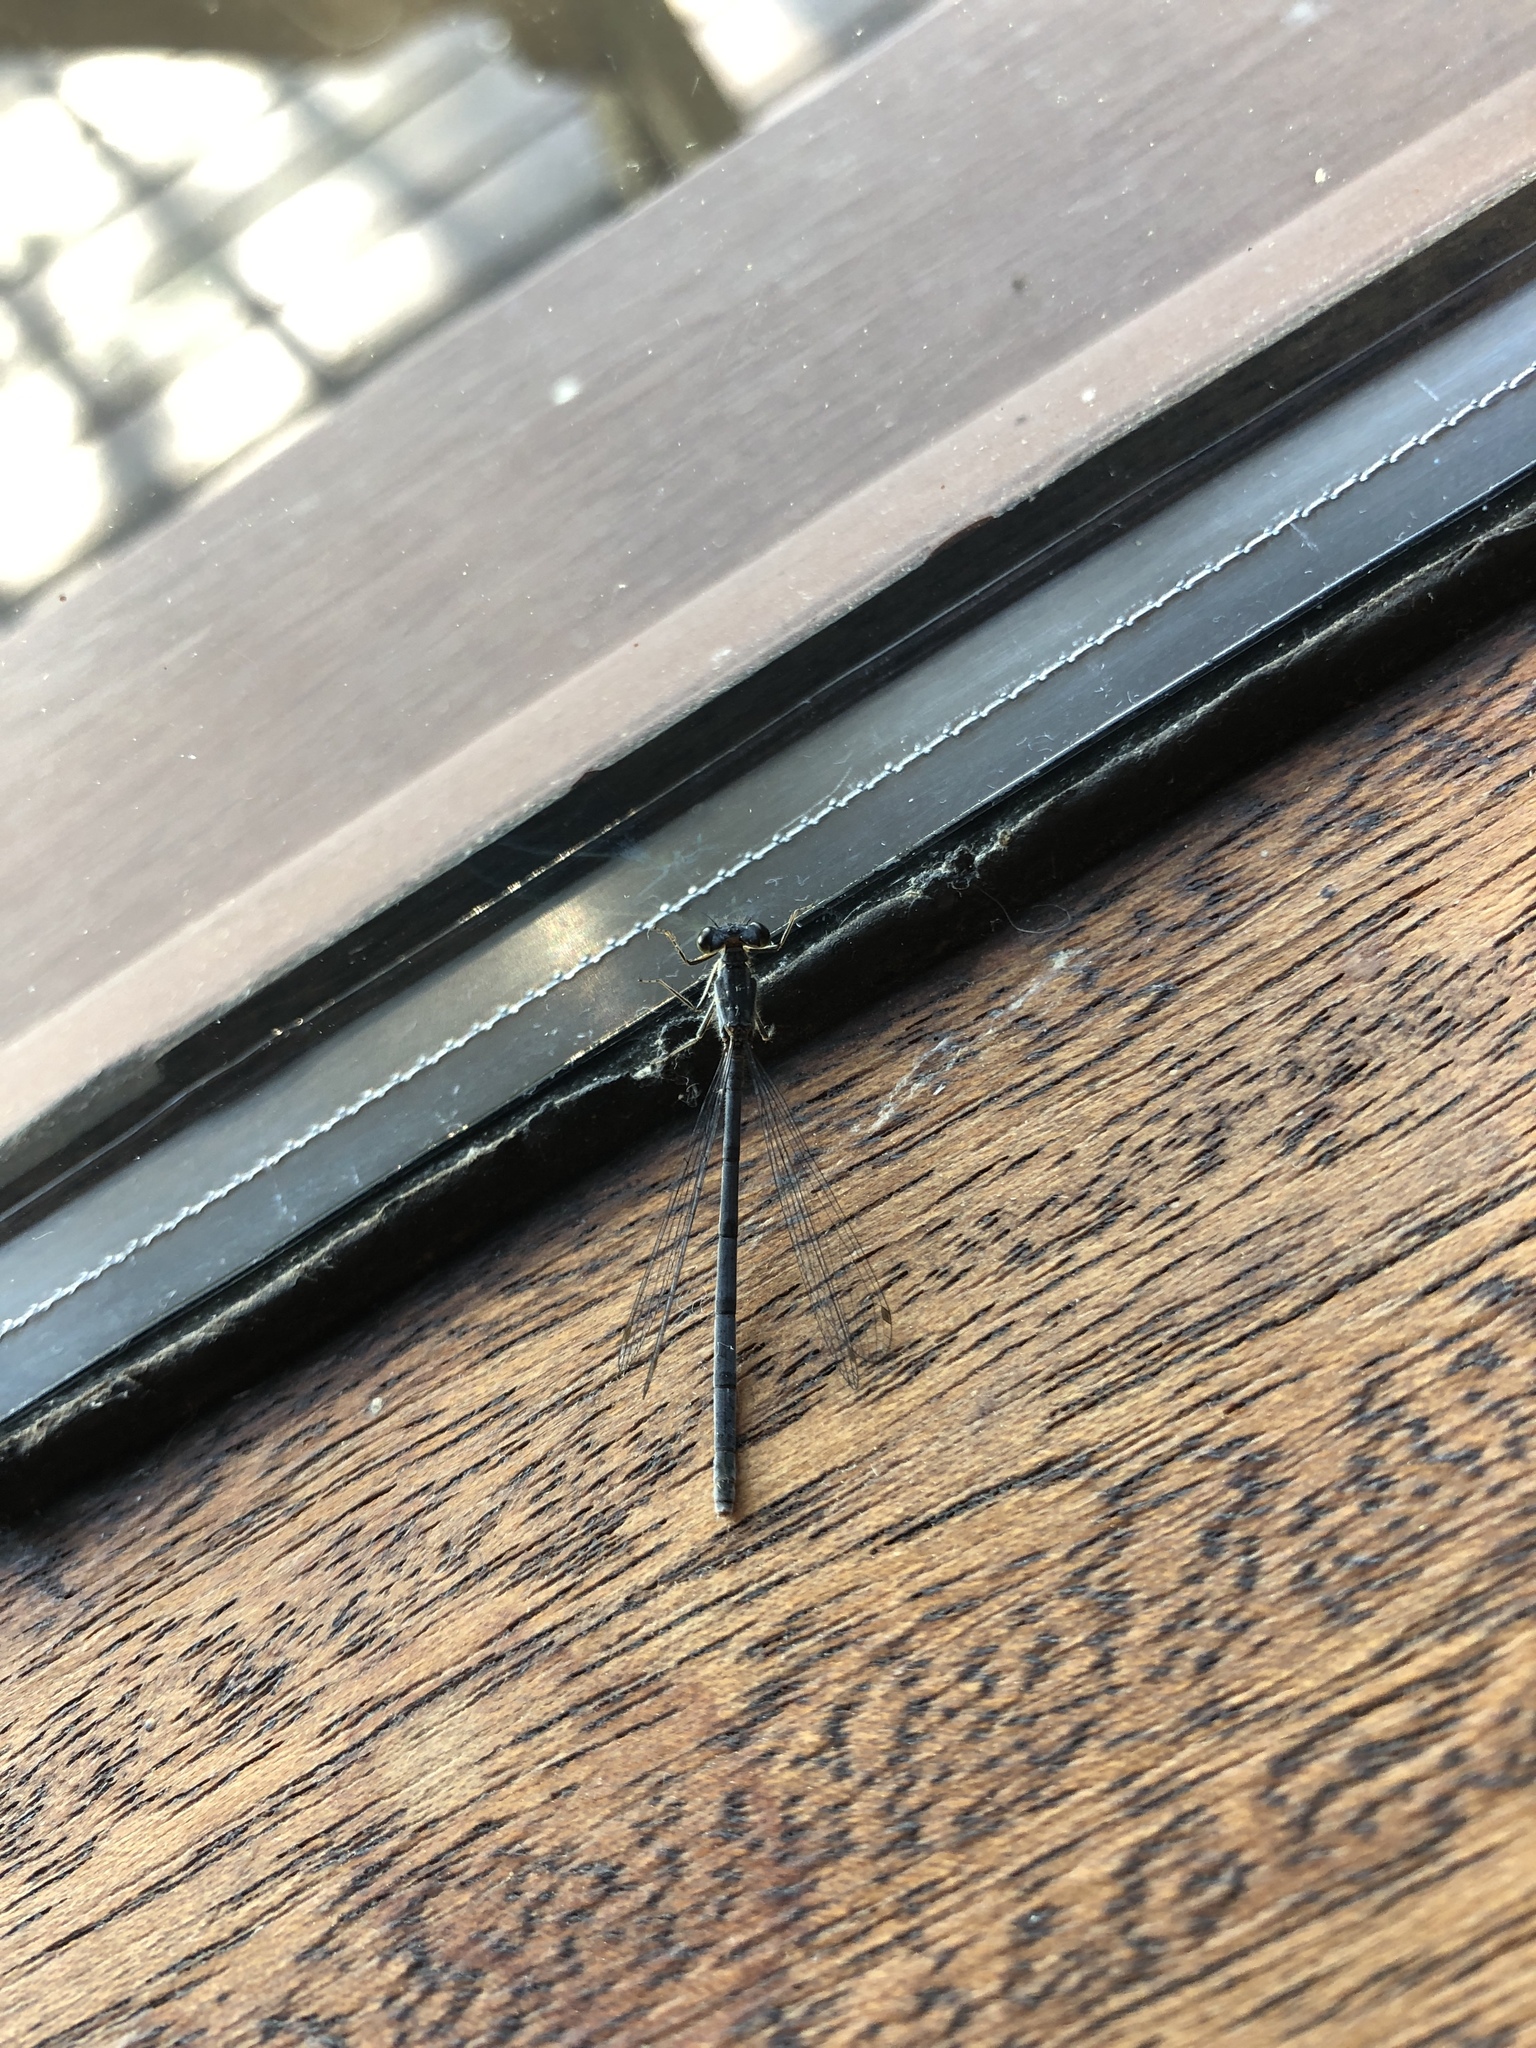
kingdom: Animalia
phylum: Arthropoda
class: Insecta
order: Odonata
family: Coenagrionidae
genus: Ischnura
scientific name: Ischnura posita
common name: Fragile forktail
